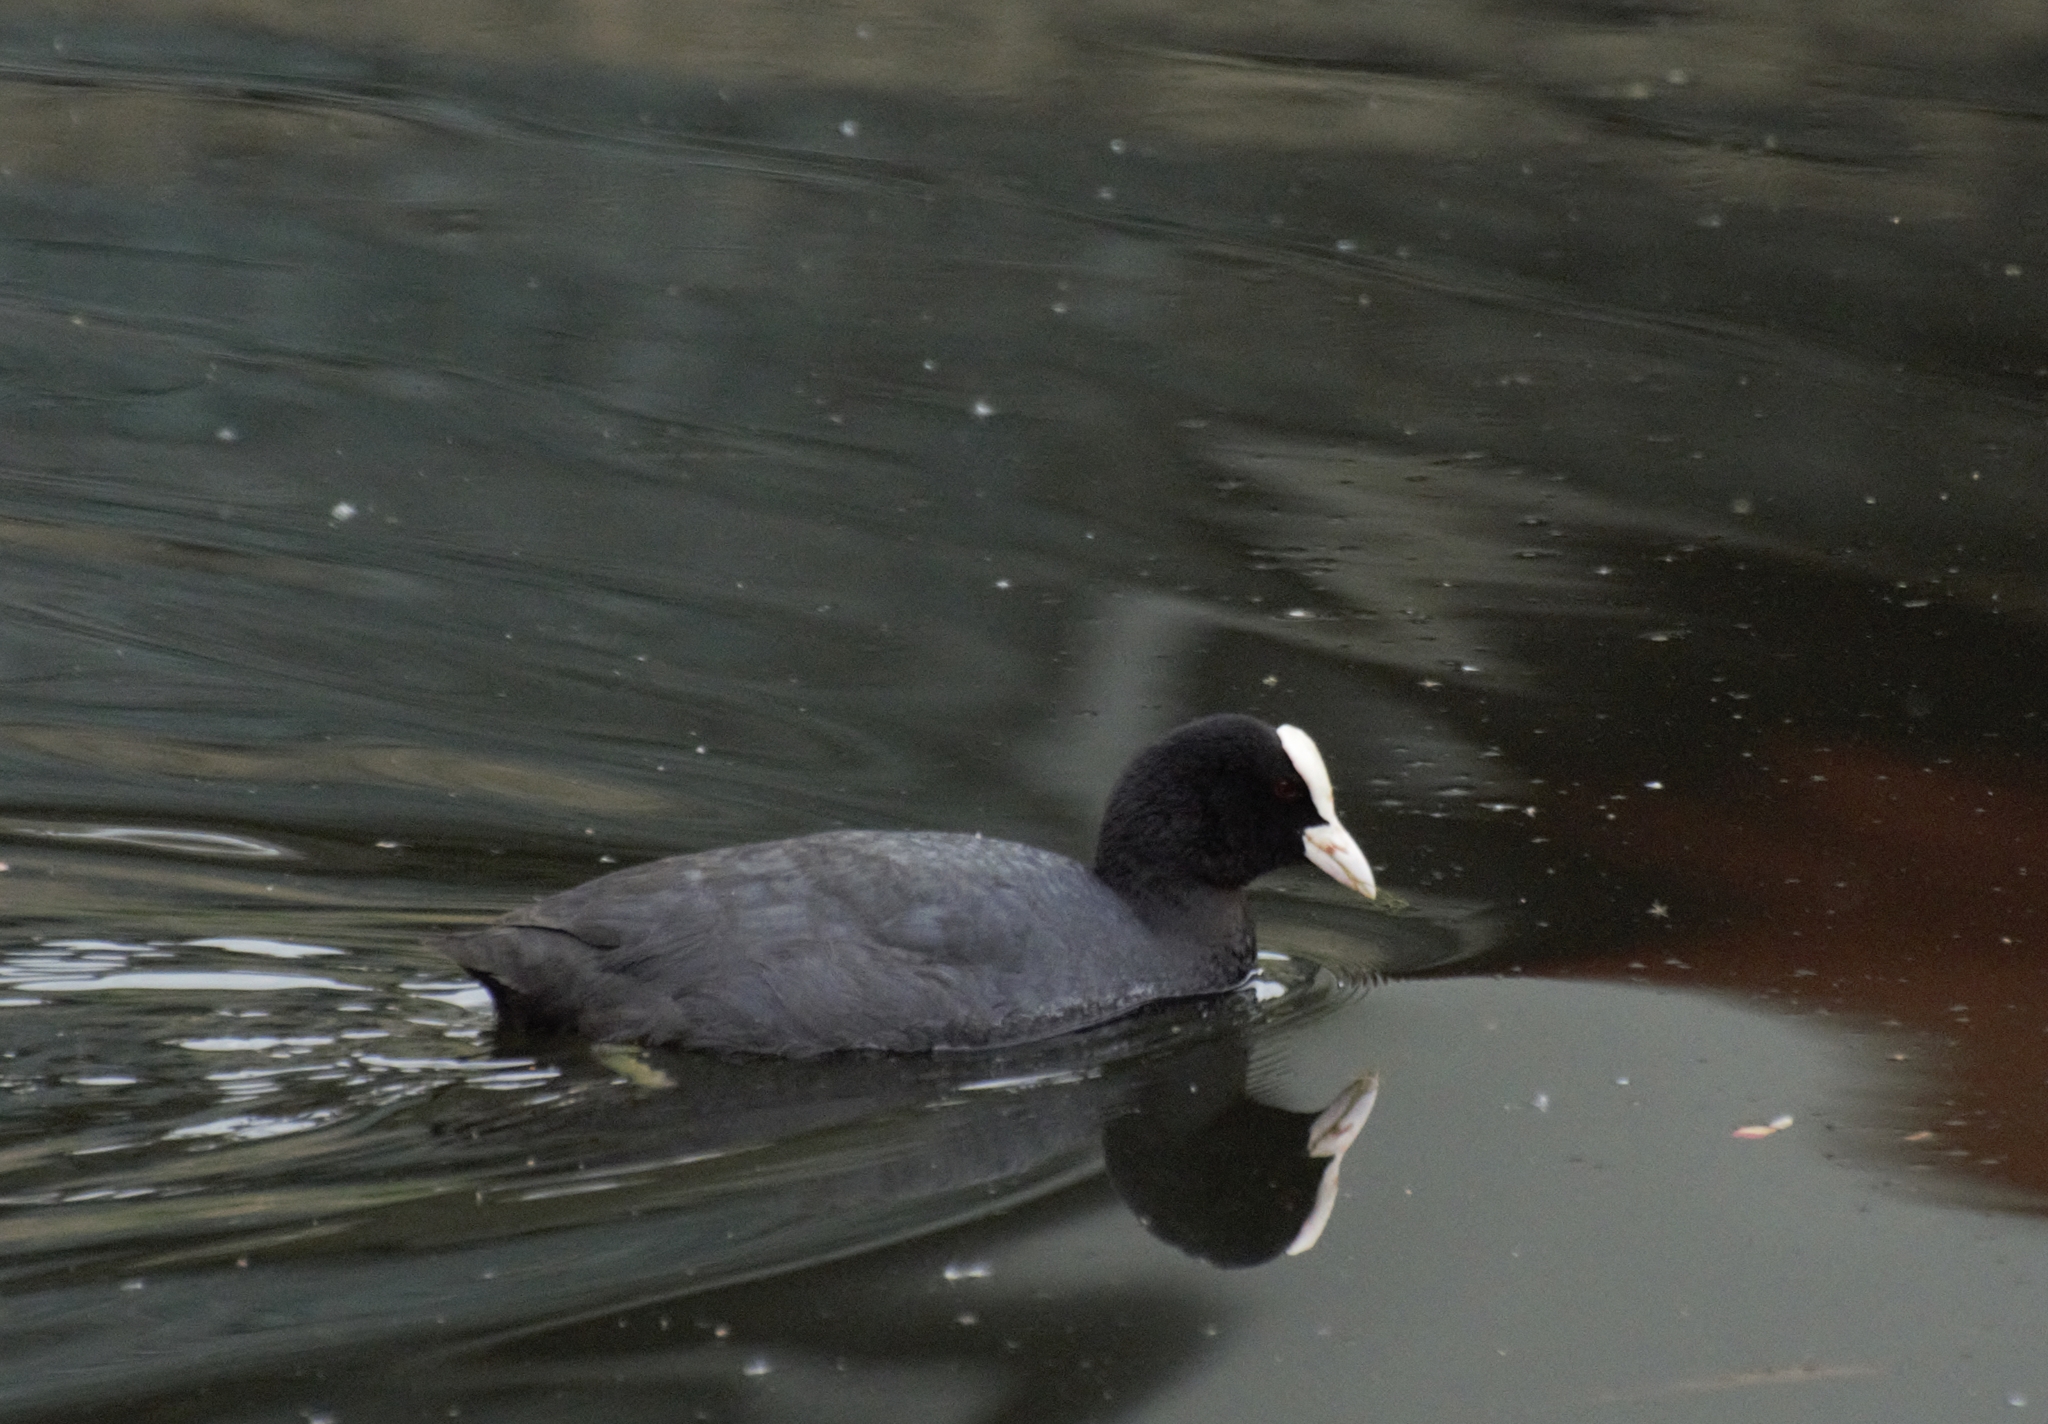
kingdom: Animalia
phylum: Chordata
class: Aves
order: Gruiformes
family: Rallidae
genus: Fulica
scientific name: Fulica atra
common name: Eurasian coot
